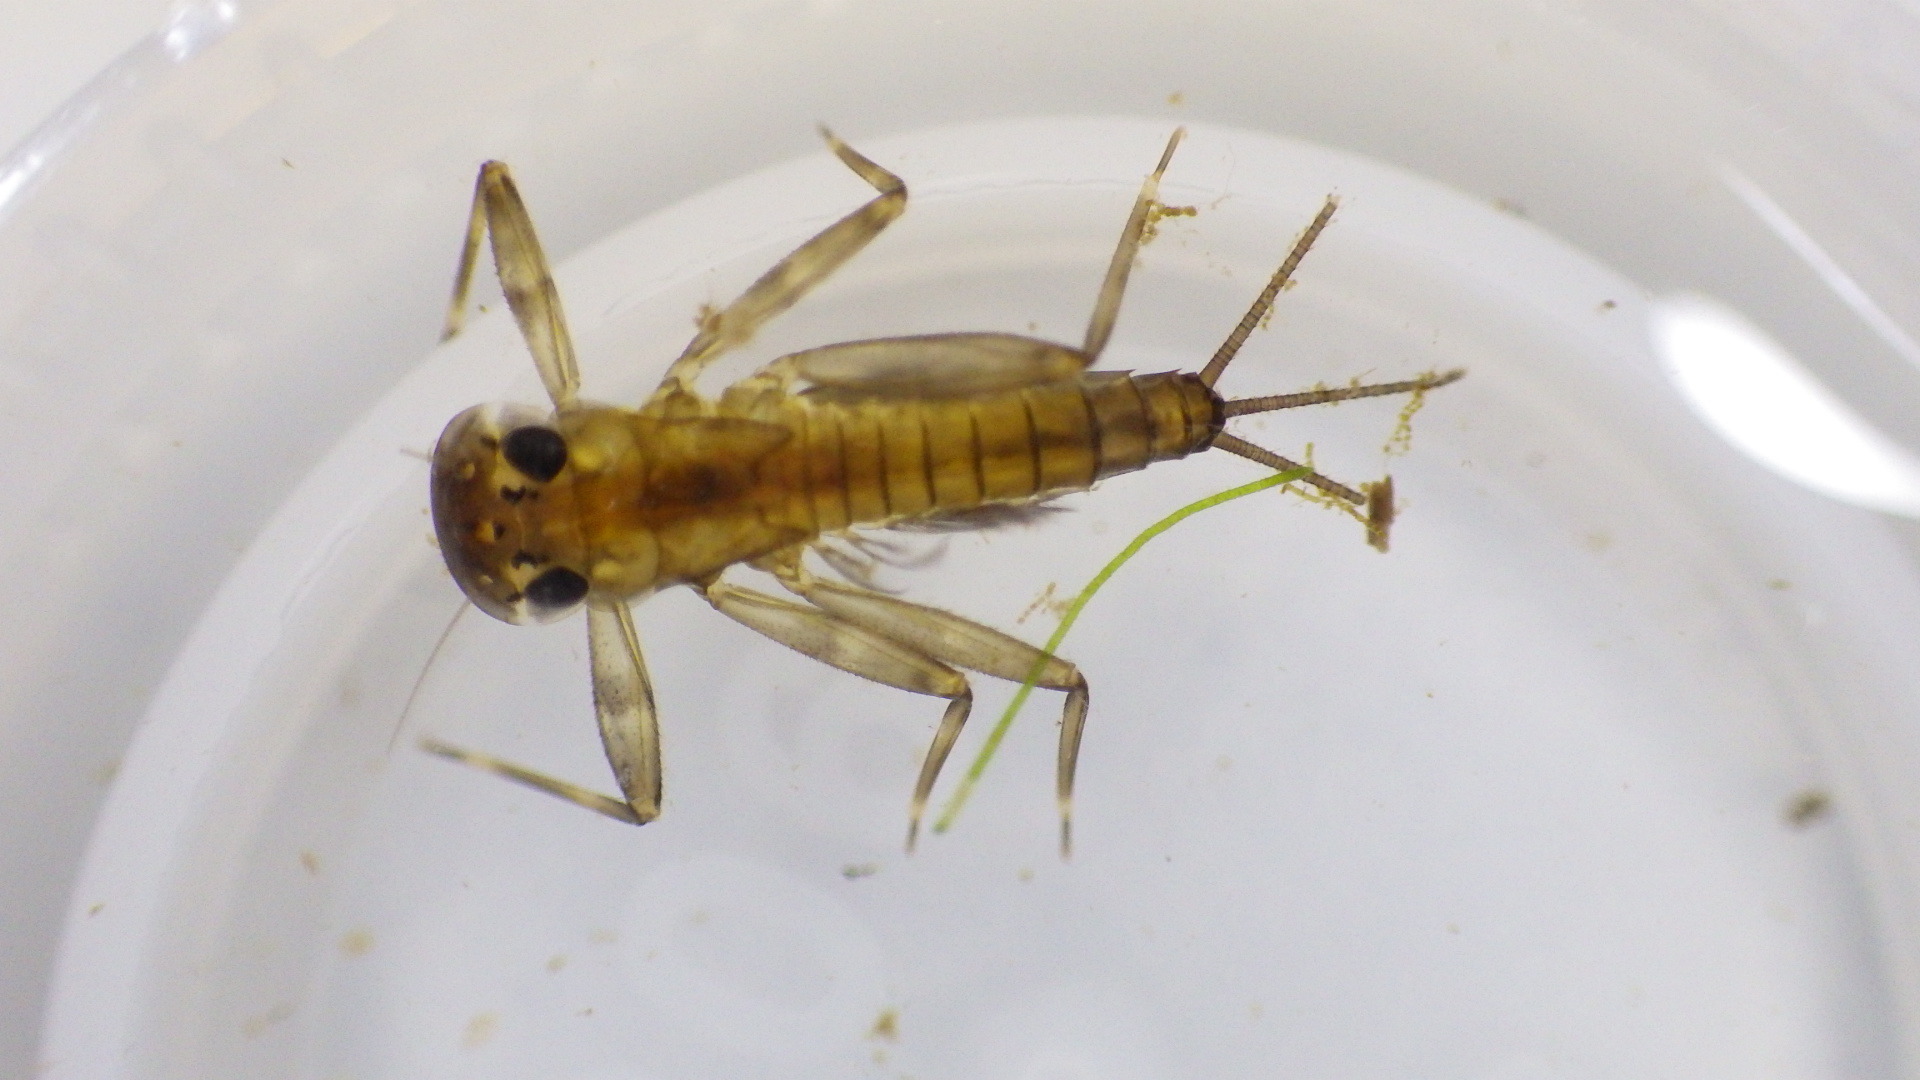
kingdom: Animalia
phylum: Arthropoda
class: Insecta
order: Ephemeroptera
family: Heptageniidae
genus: Stenacron
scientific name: Stenacron carolina
